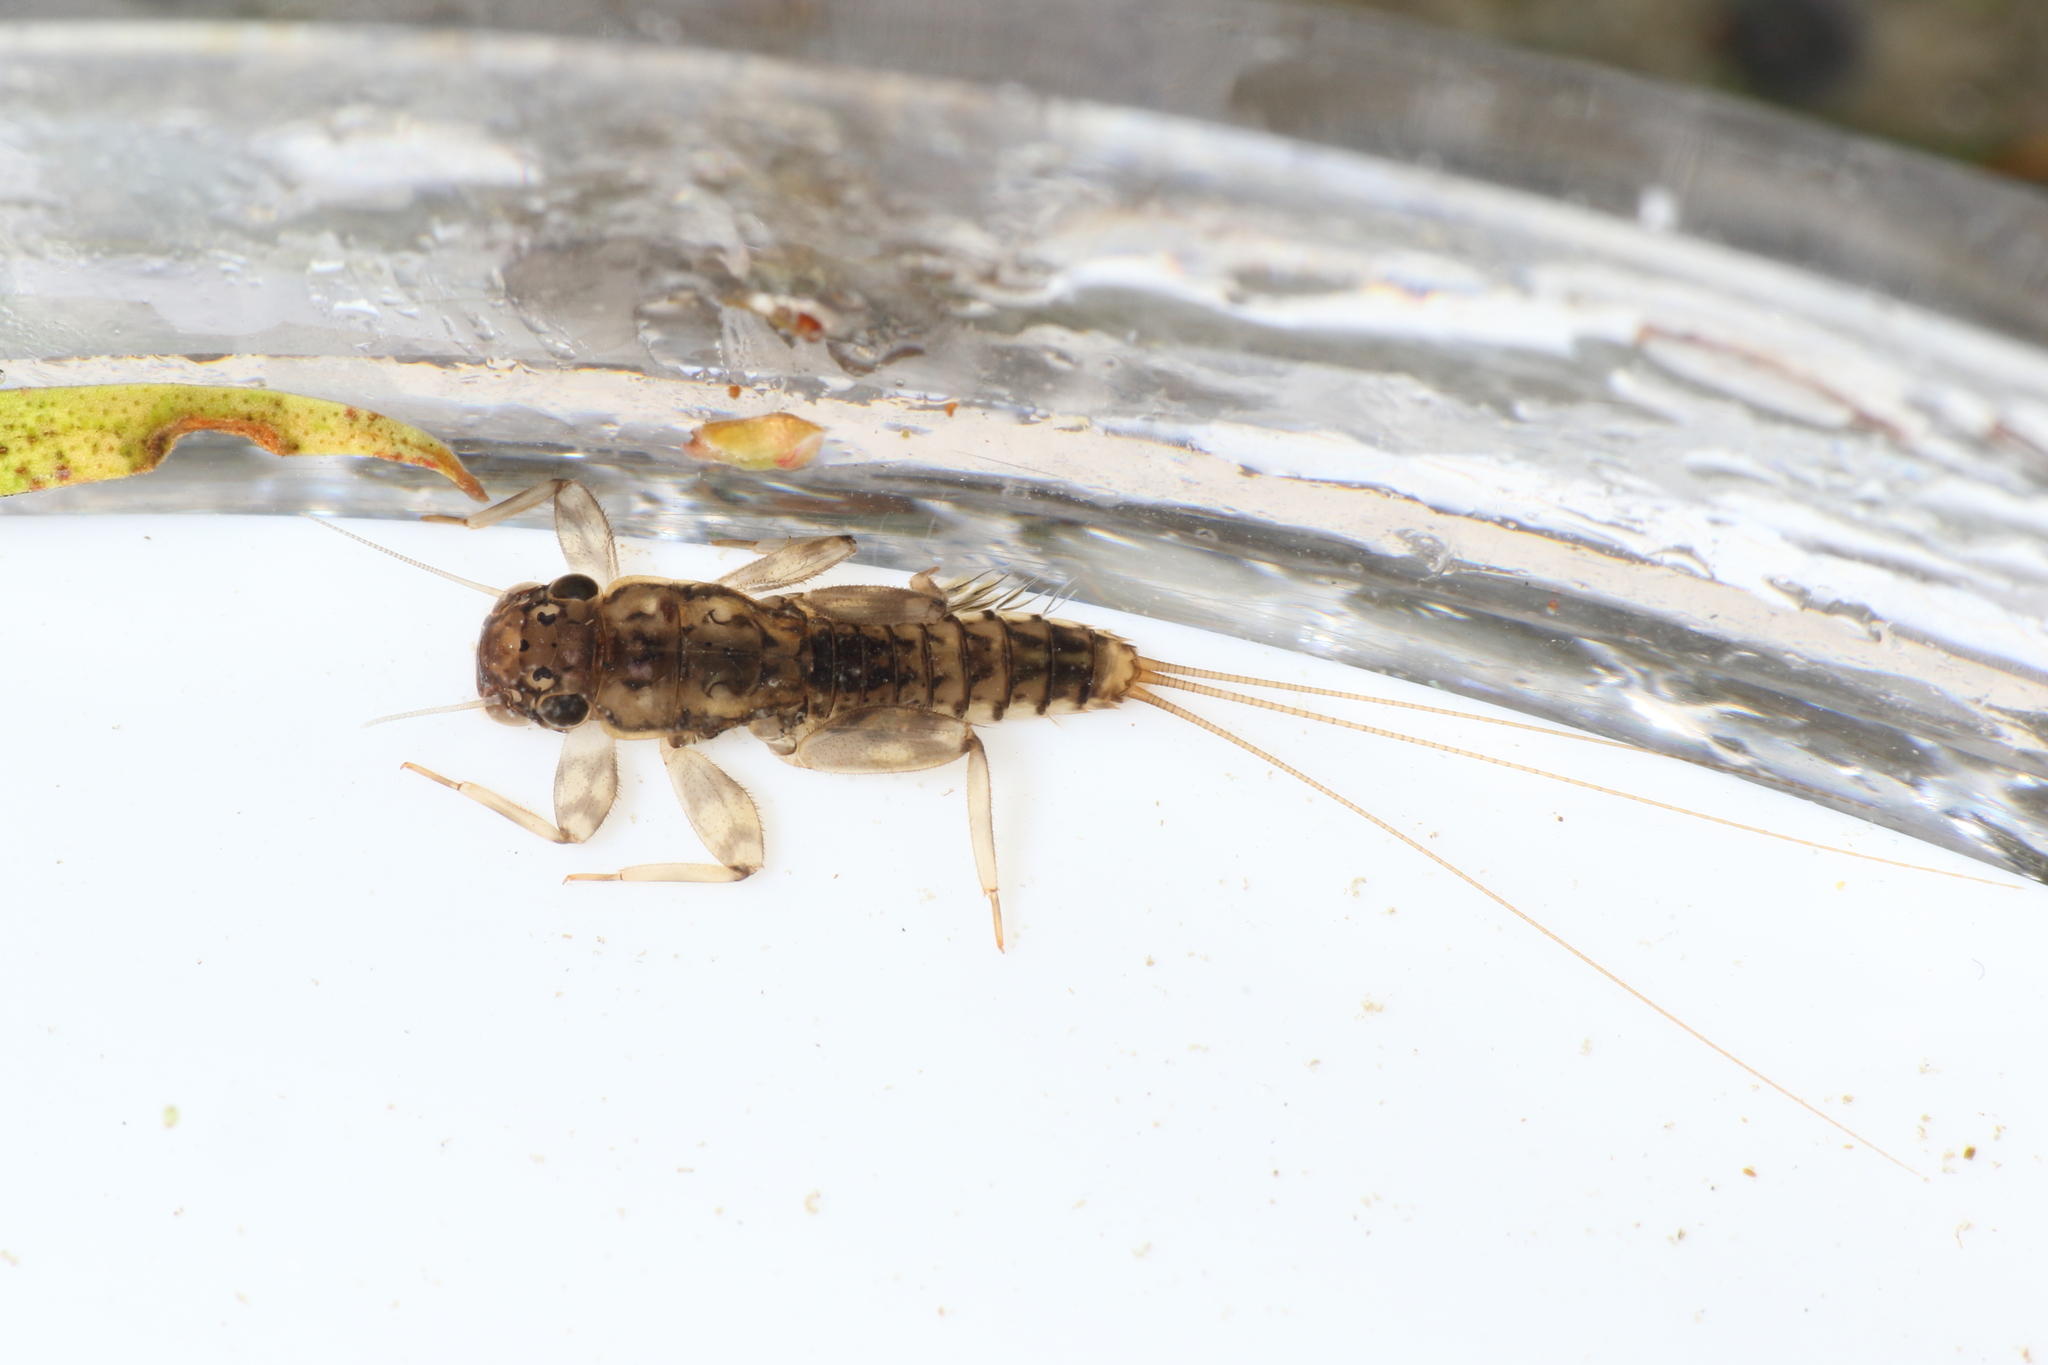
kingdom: Animalia
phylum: Arthropoda
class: Insecta
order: Ephemeroptera
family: Leptophlebiidae
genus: Zephlebia
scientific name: Zephlebia dentata
